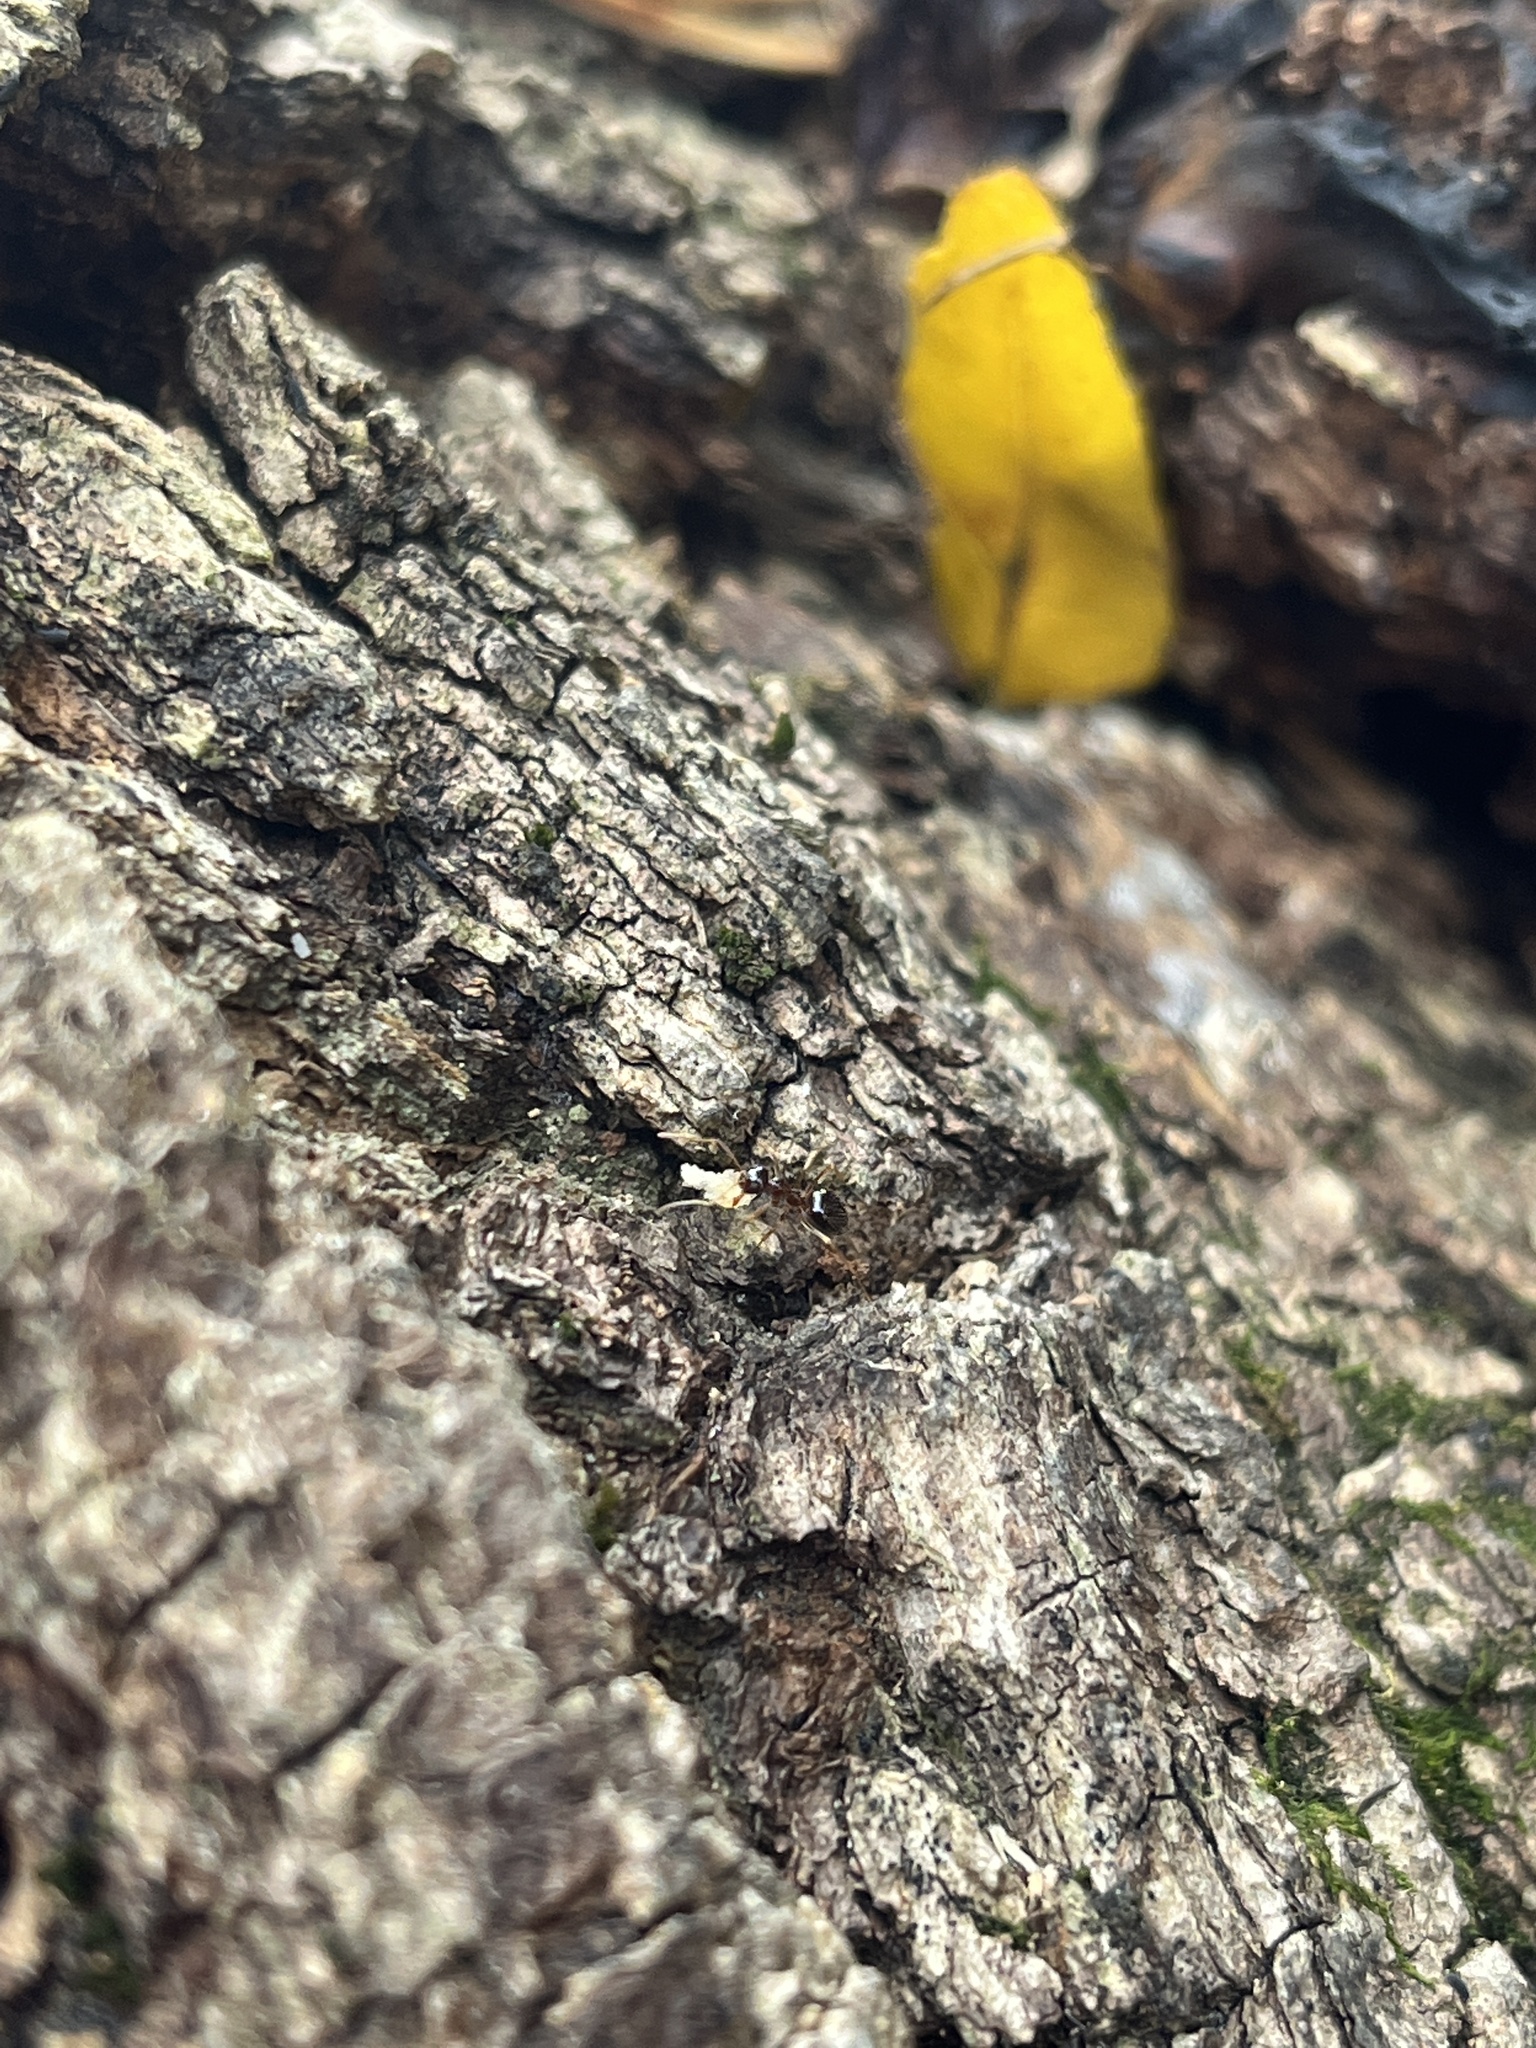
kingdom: Animalia
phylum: Arthropoda
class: Insecta
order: Hymenoptera
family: Formicidae
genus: Prenolepis
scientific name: Prenolepis imparis
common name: Small honey ant
